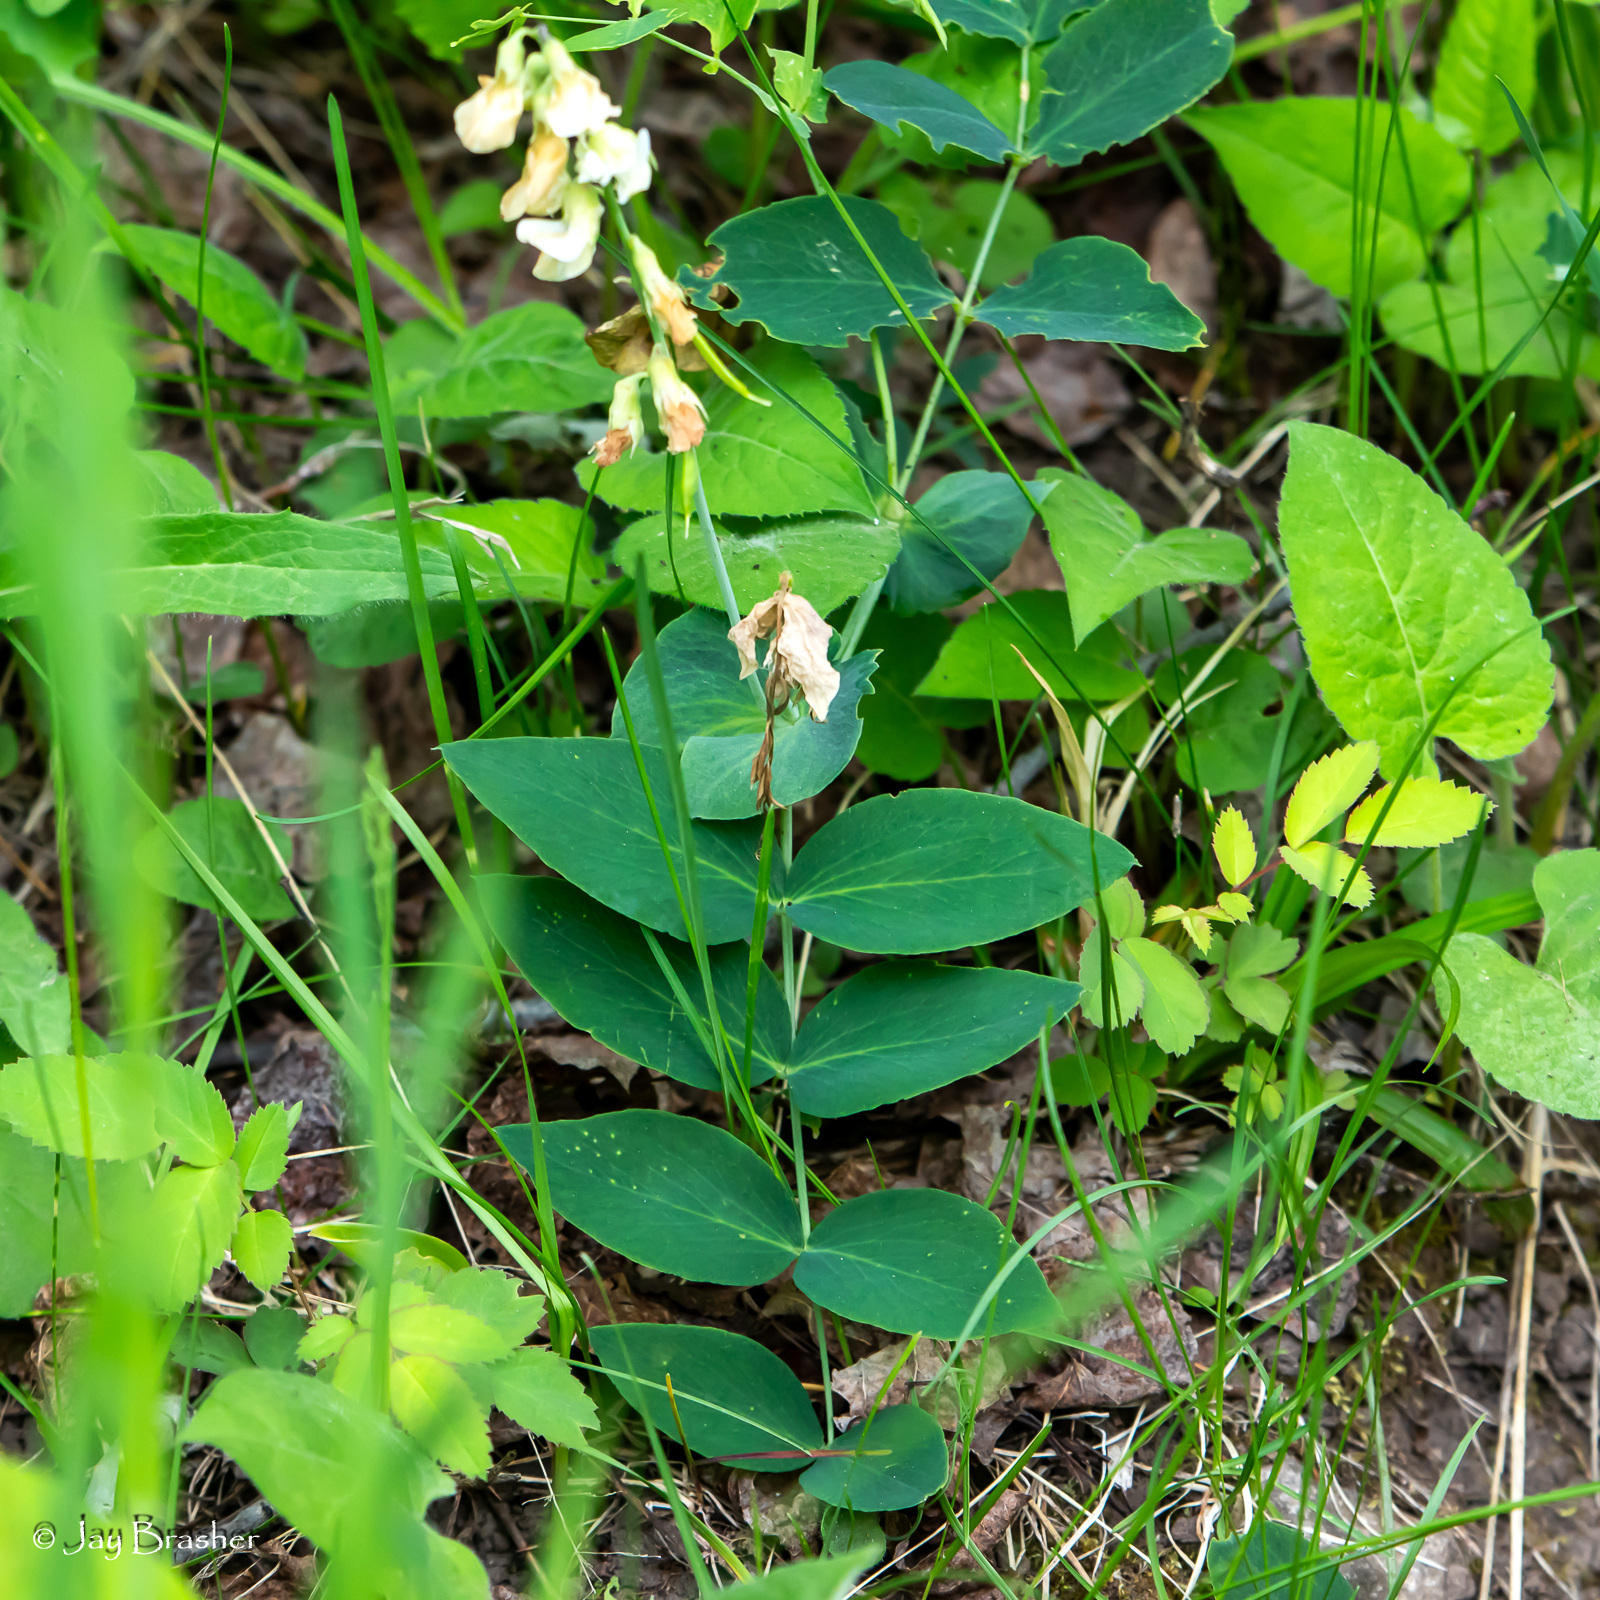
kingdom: Plantae
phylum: Tracheophyta
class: Magnoliopsida
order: Fabales
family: Fabaceae
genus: Lathyrus
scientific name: Lathyrus ochroleucus
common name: Pale vetchling
